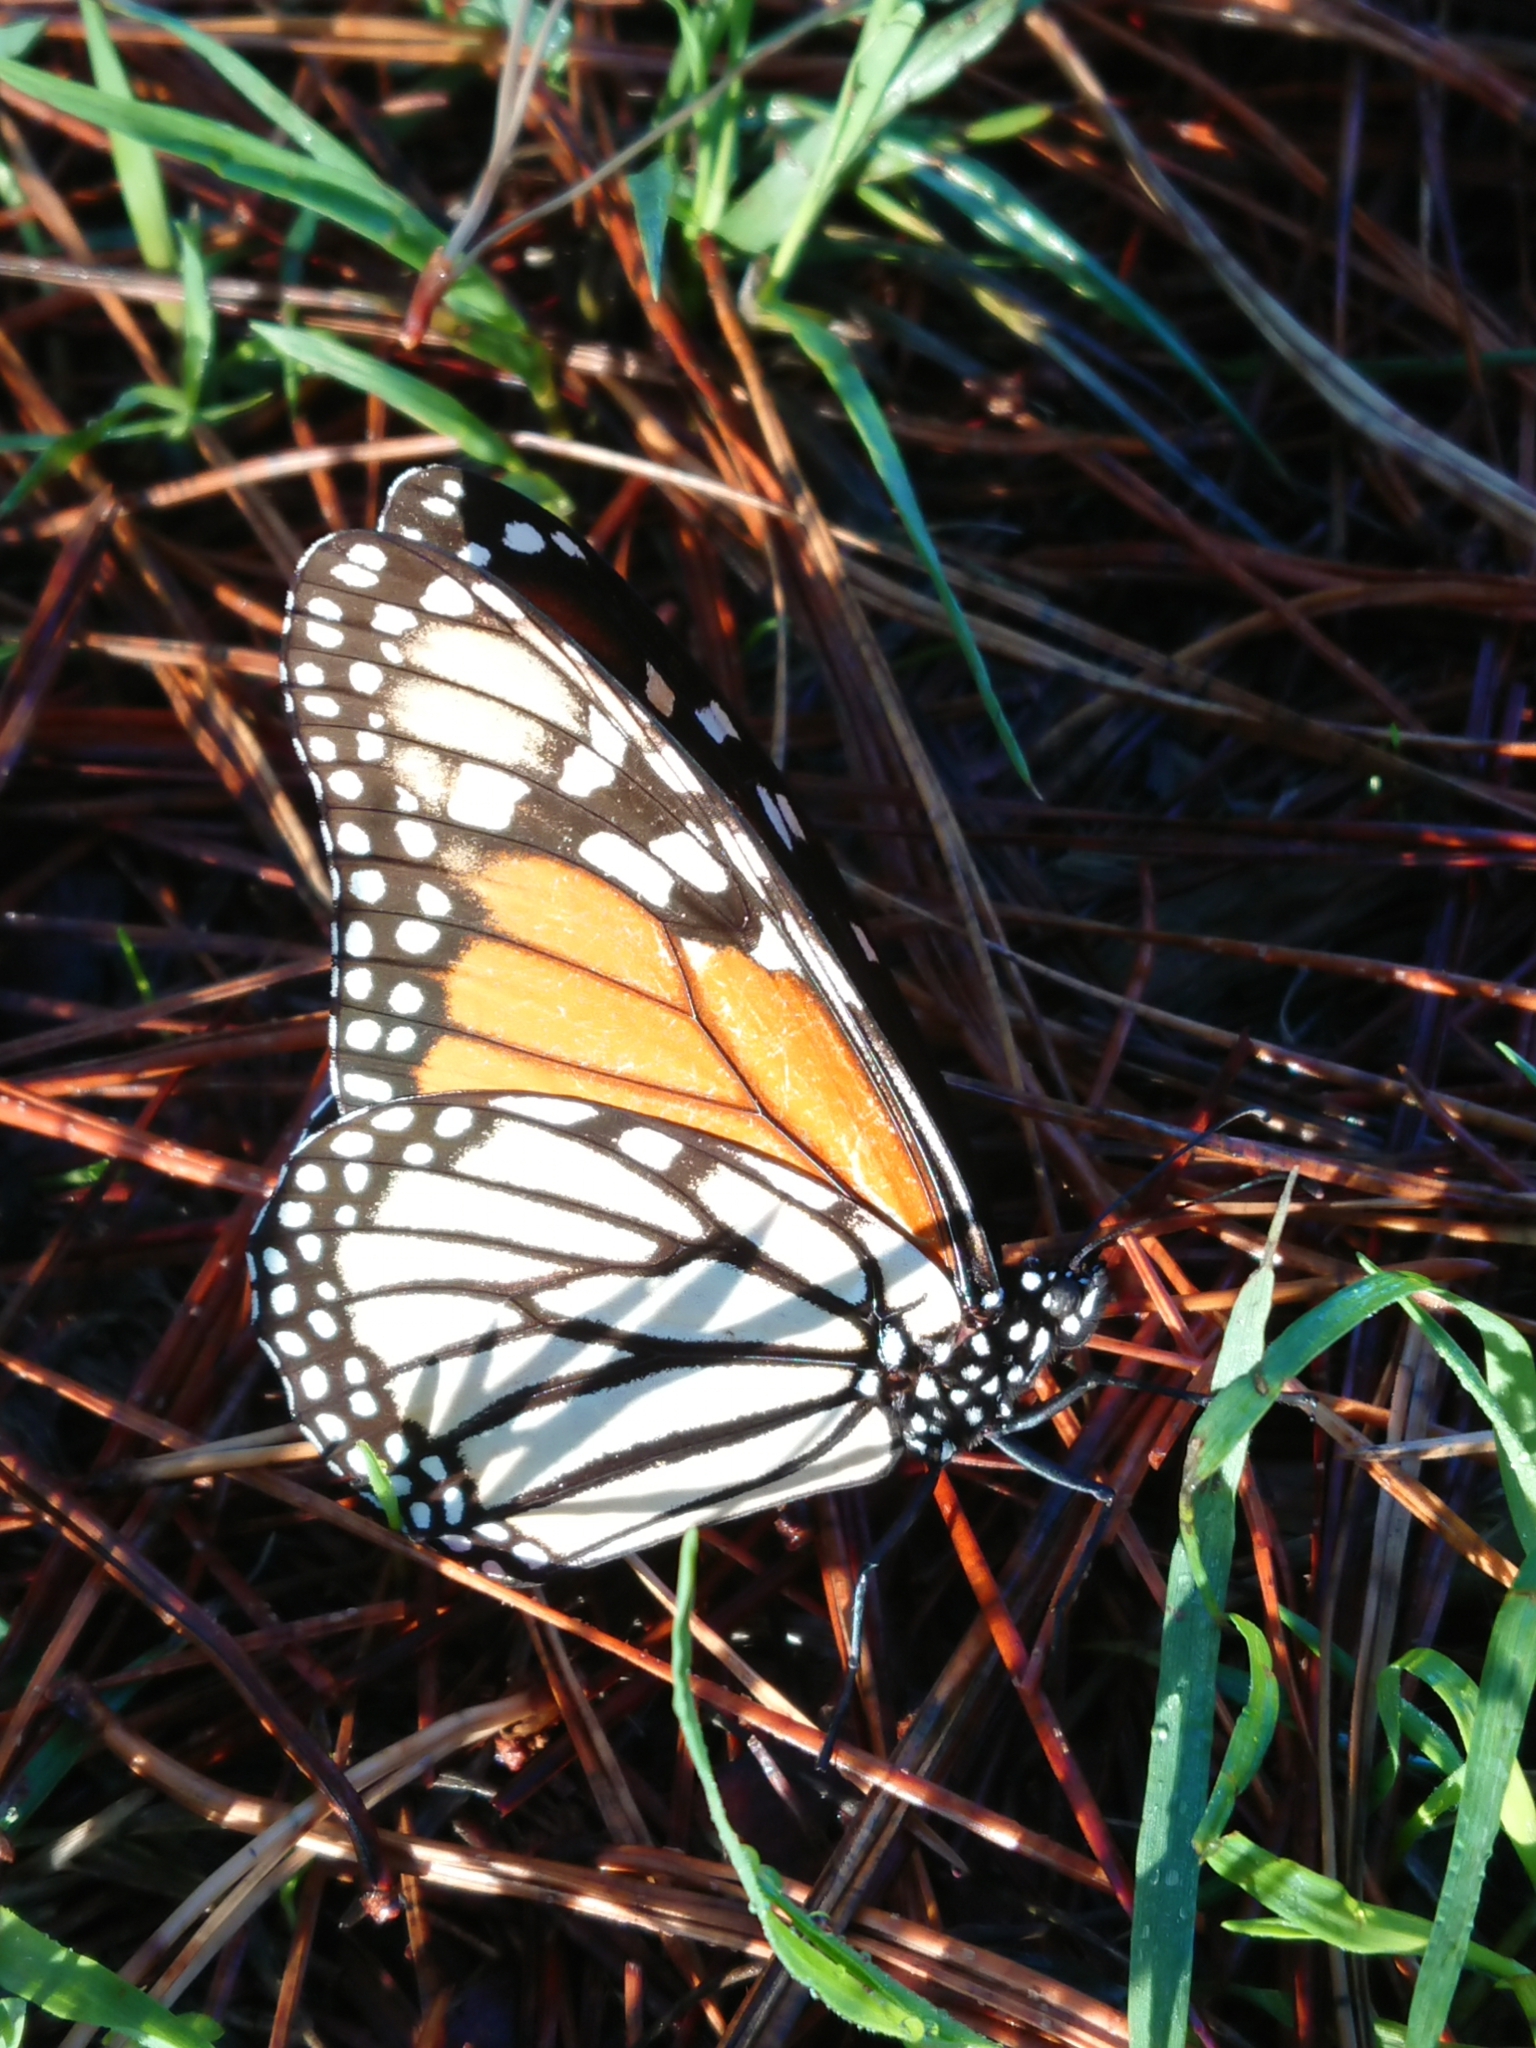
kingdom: Animalia
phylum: Arthropoda
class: Insecta
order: Lepidoptera
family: Nymphalidae
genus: Danaus
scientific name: Danaus plexippus
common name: Monarch
